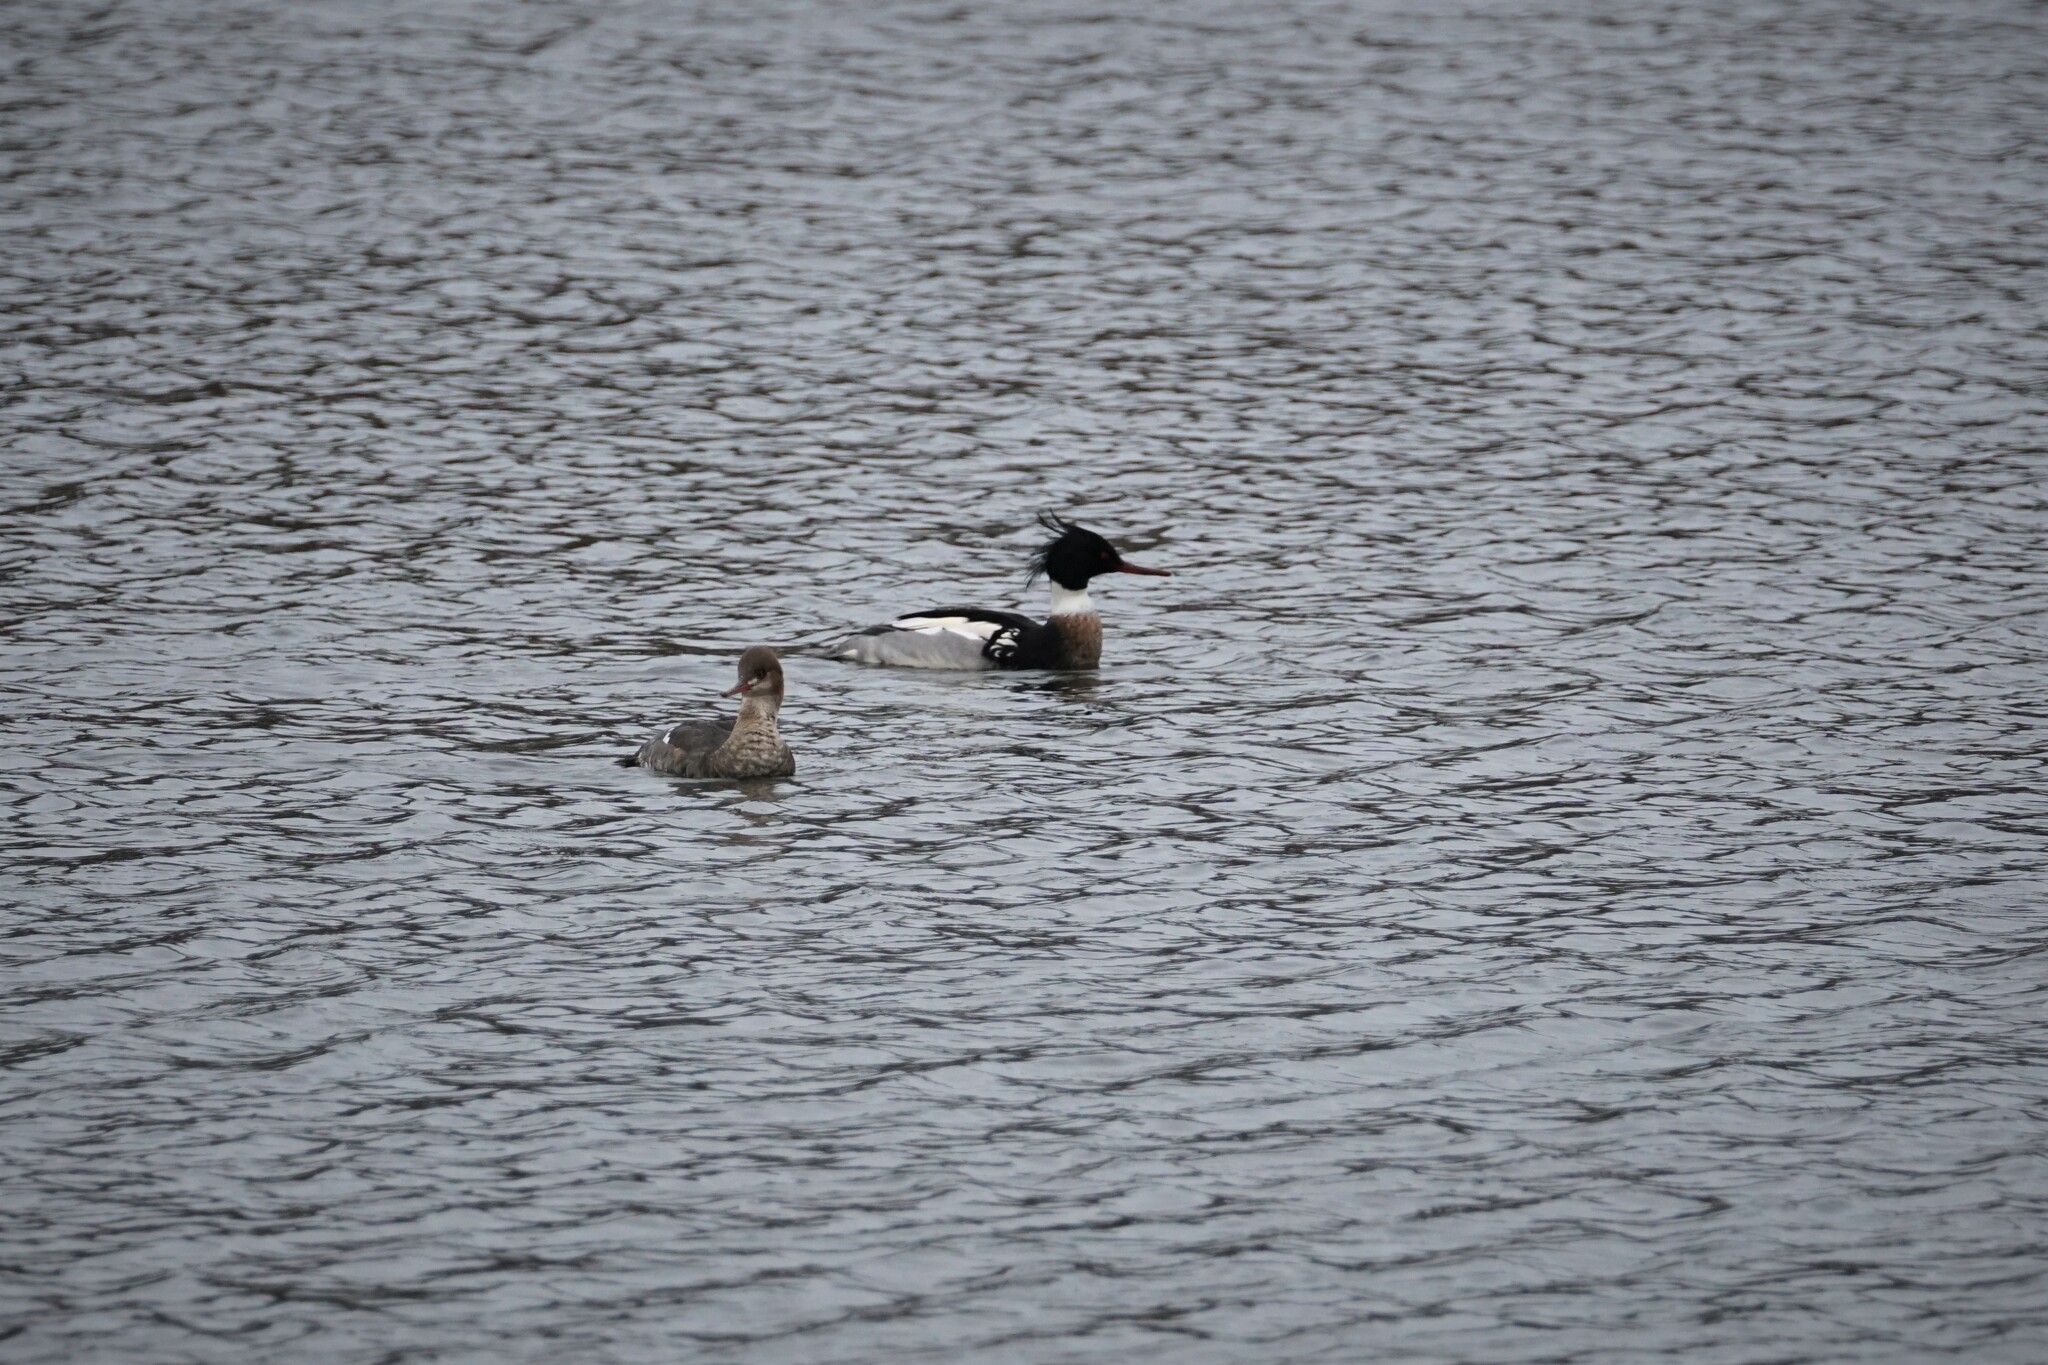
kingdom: Animalia
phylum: Chordata
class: Aves
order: Anseriformes
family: Anatidae
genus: Mergus
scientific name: Mergus serrator
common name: Red-breasted merganser
